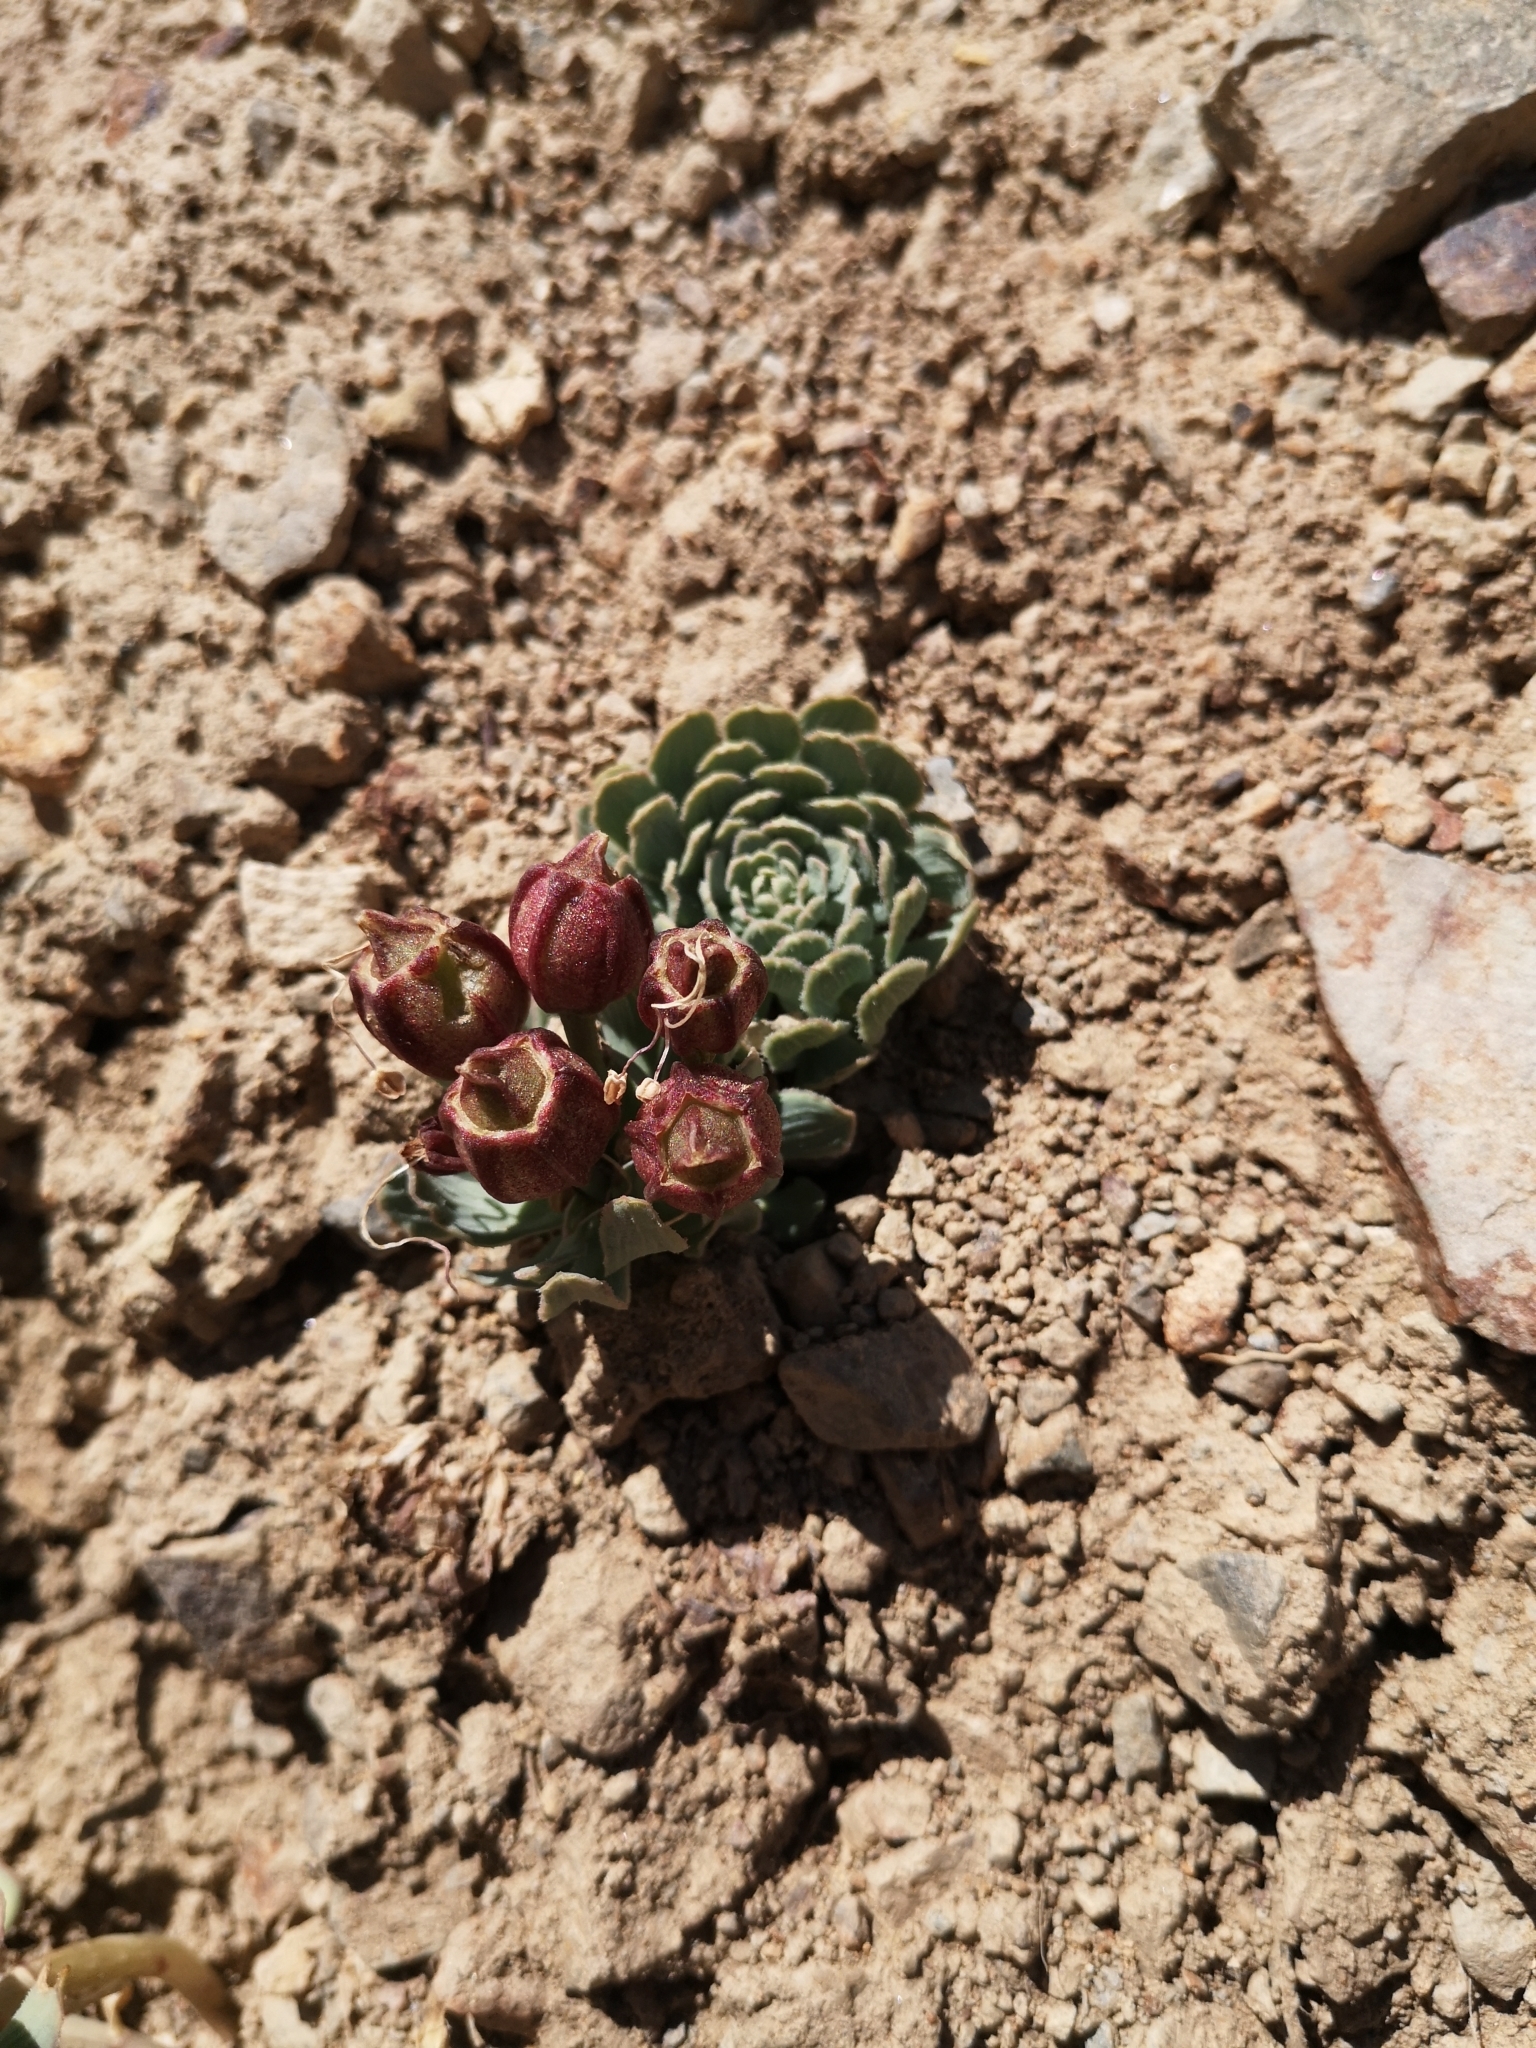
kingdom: Plantae
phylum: Tracheophyta
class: Liliopsida
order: Liliales
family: Alstroemeriaceae
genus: Alstroemeria
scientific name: Alstroemeria spathulata
